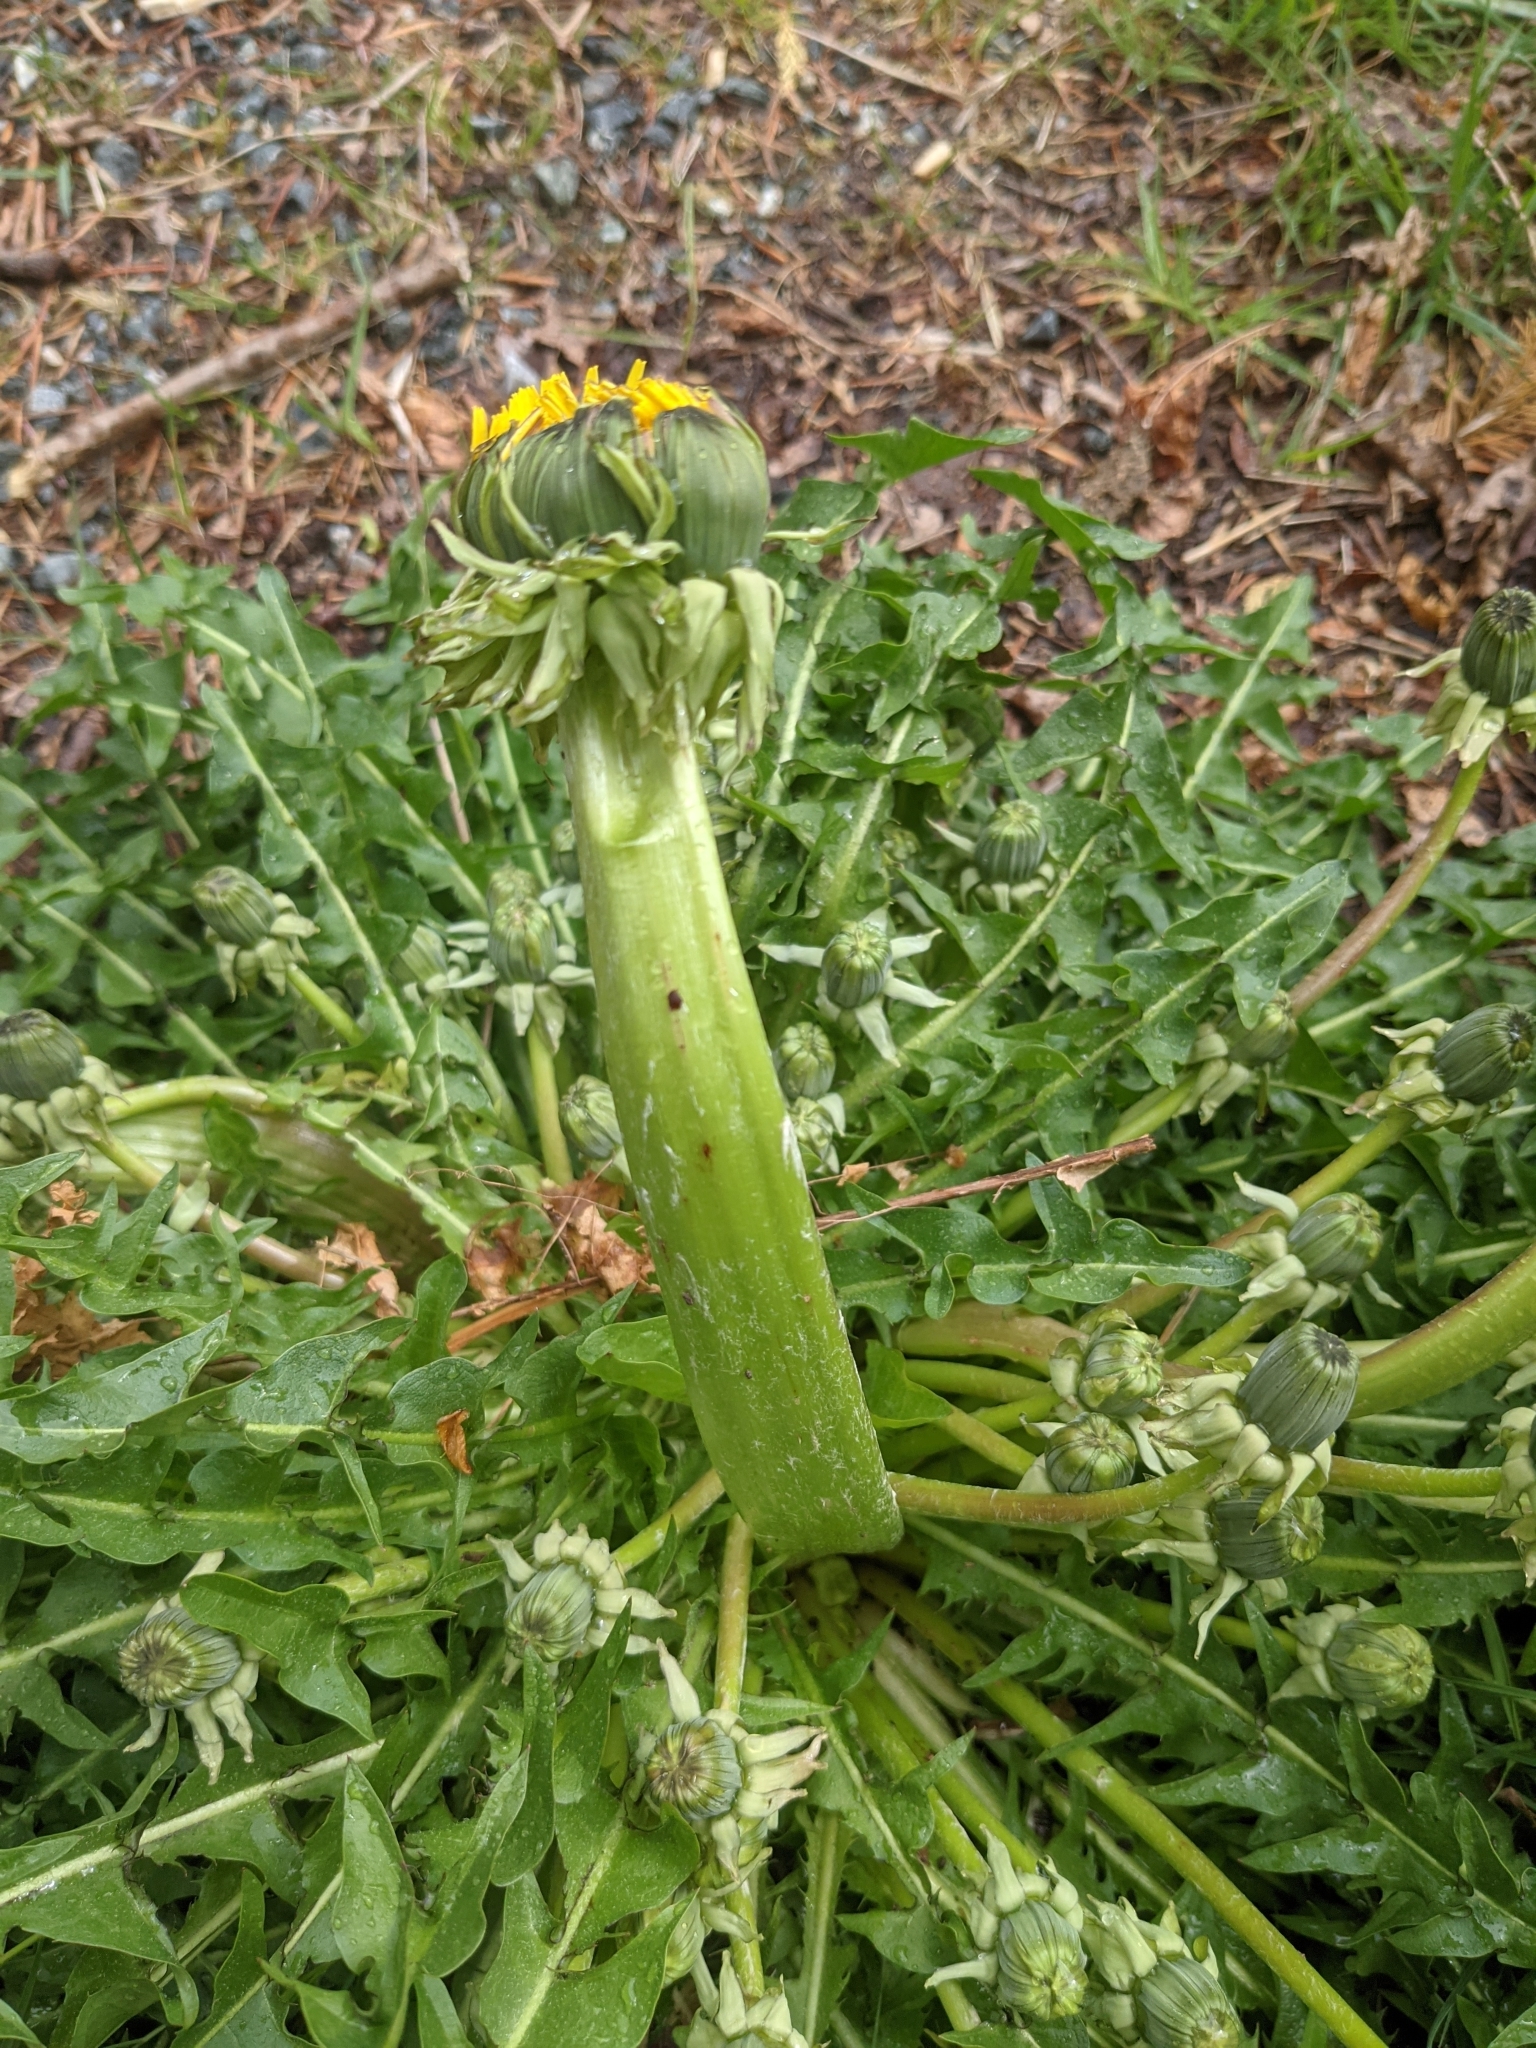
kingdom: Plantae
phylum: Tracheophyta
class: Magnoliopsida
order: Asterales
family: Asteraceae
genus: Taraxacum
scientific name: Taraxacum officinale
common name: Common dandelion
